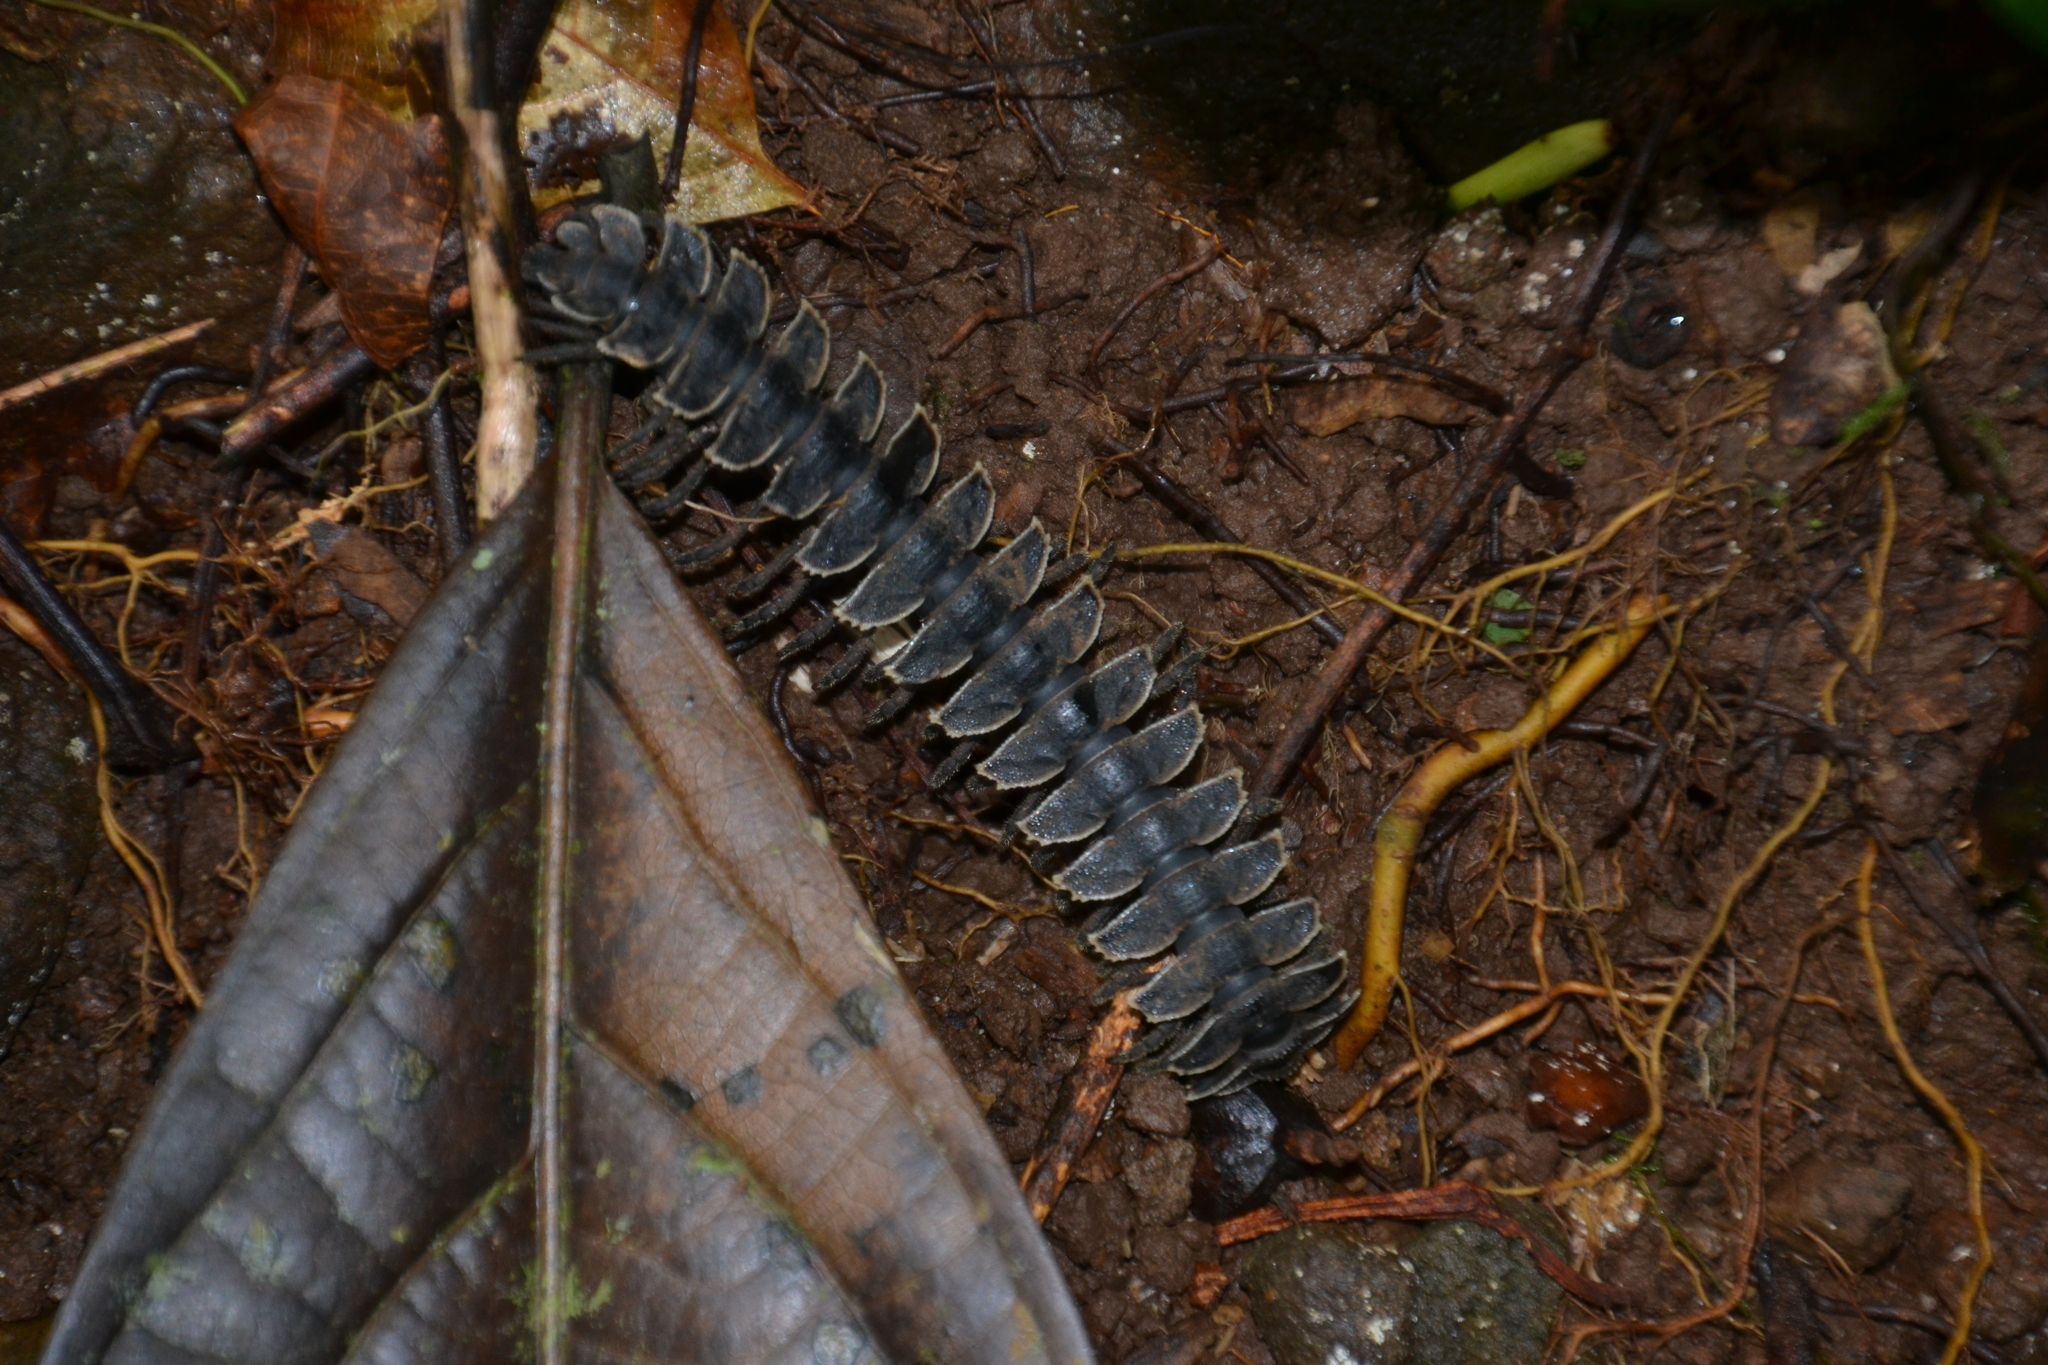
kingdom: Animalia
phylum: Arthropoda
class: Diplopoda
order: Polydesmida
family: Platyrhacidae
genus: Tirodesmus
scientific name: Tirodesmus fimbriatus
